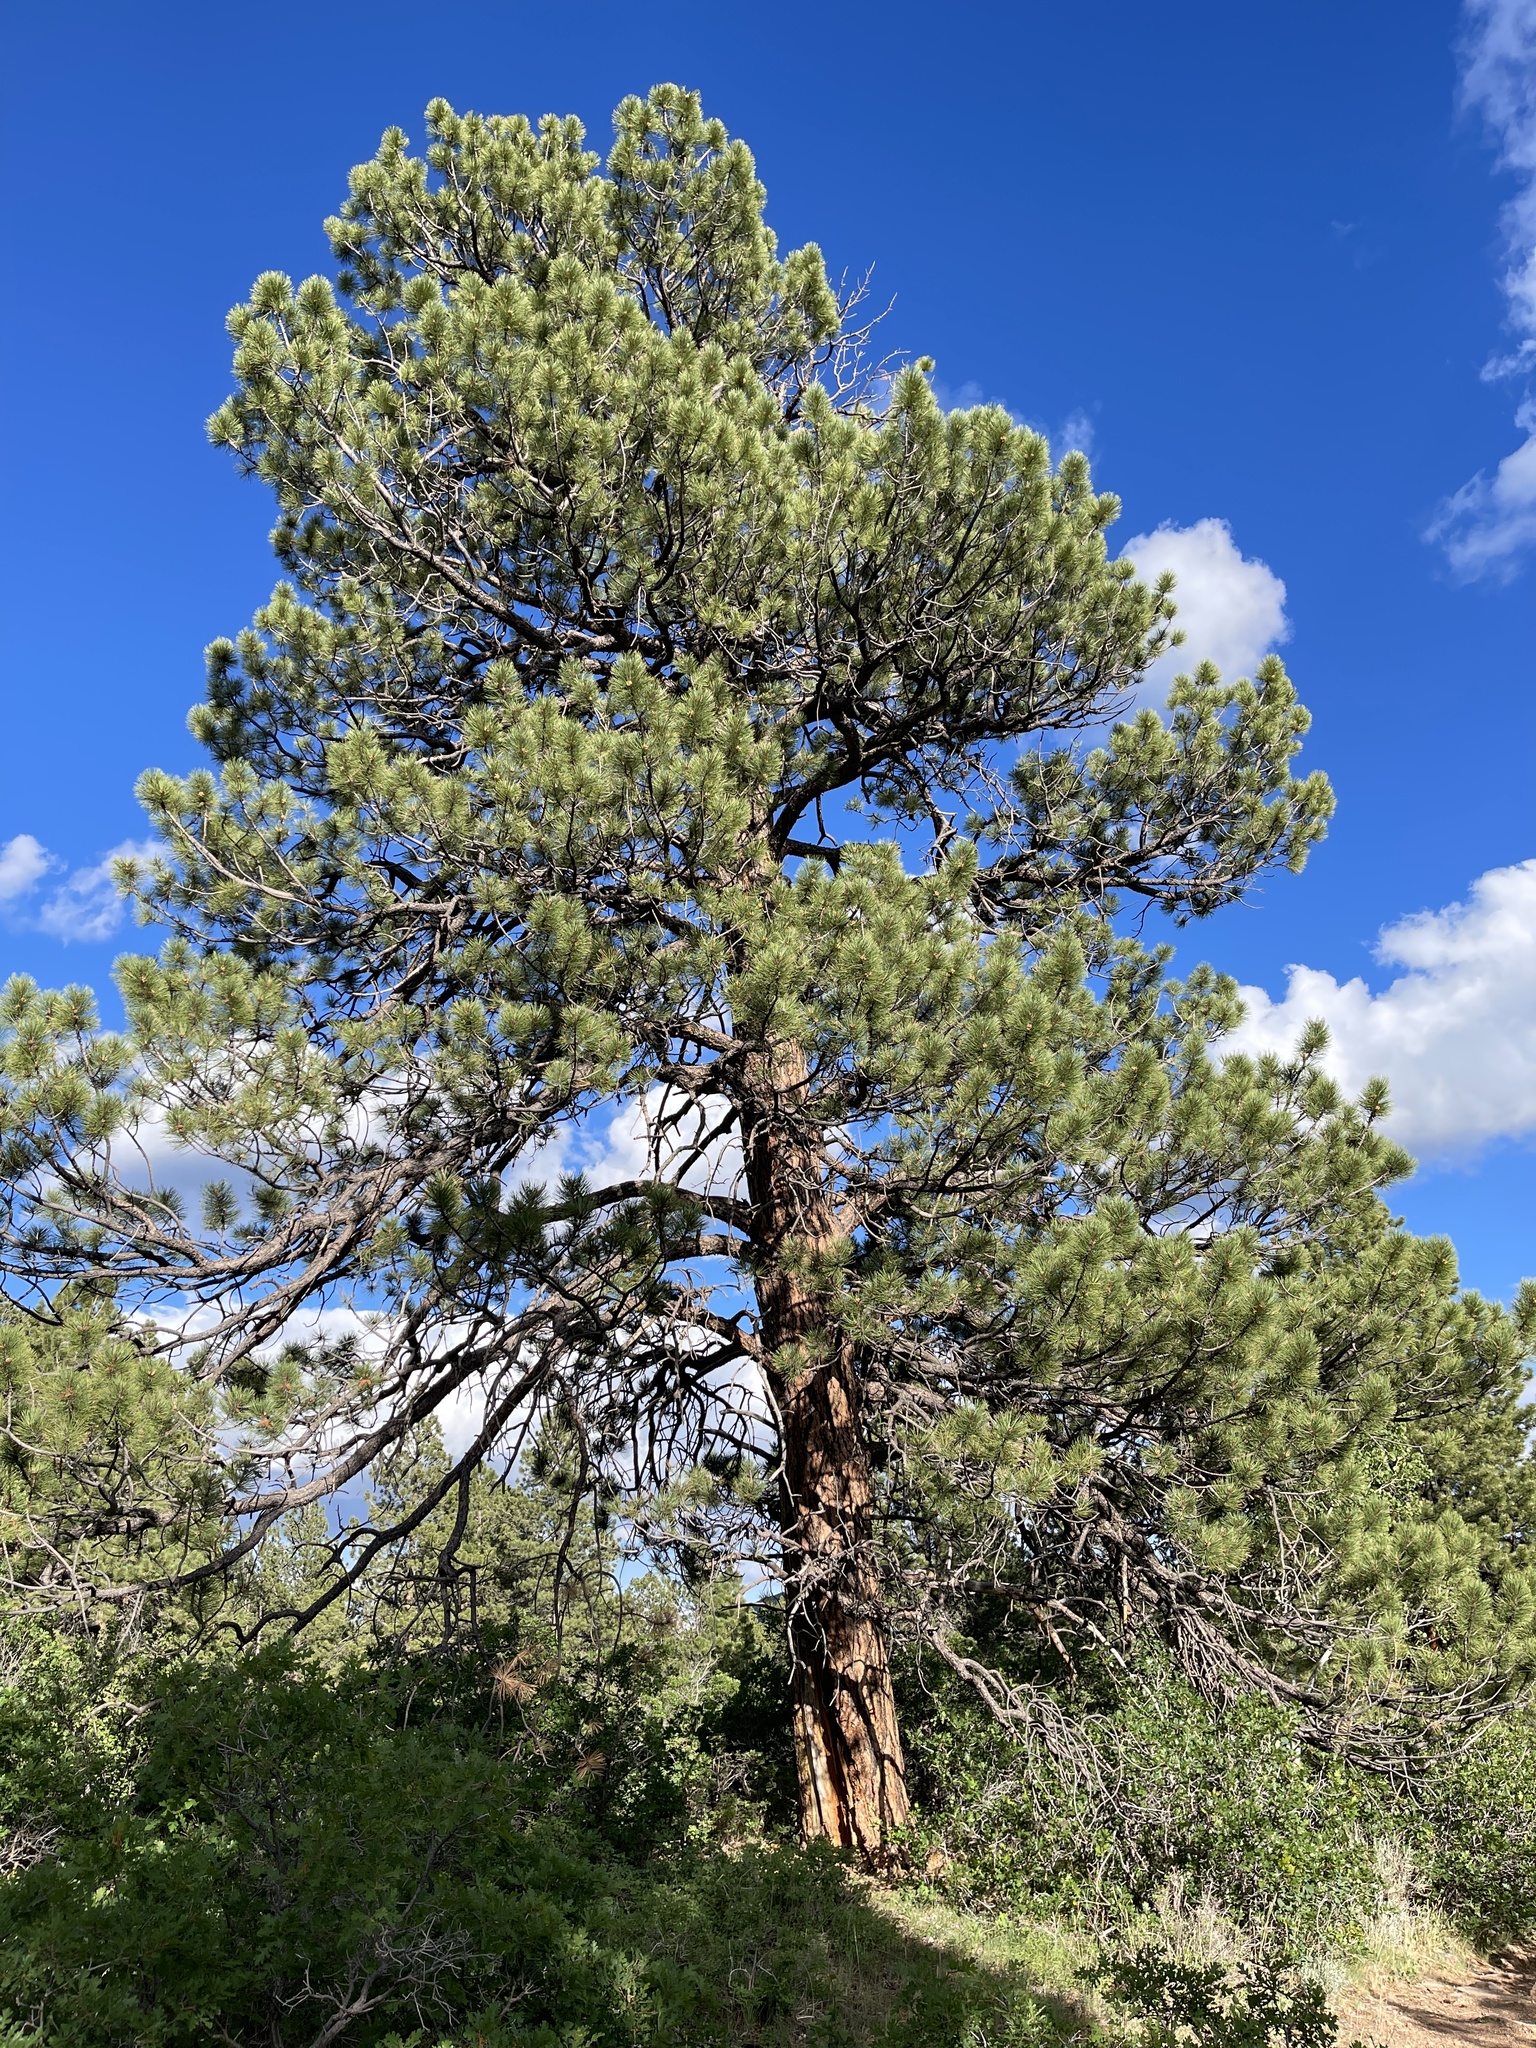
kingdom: Plantae
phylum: Tracheophyta
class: Pinopsida
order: Pinales
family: Pinaceae
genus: Pinus
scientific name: Pinus ponderosa
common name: Western yellow-pine
